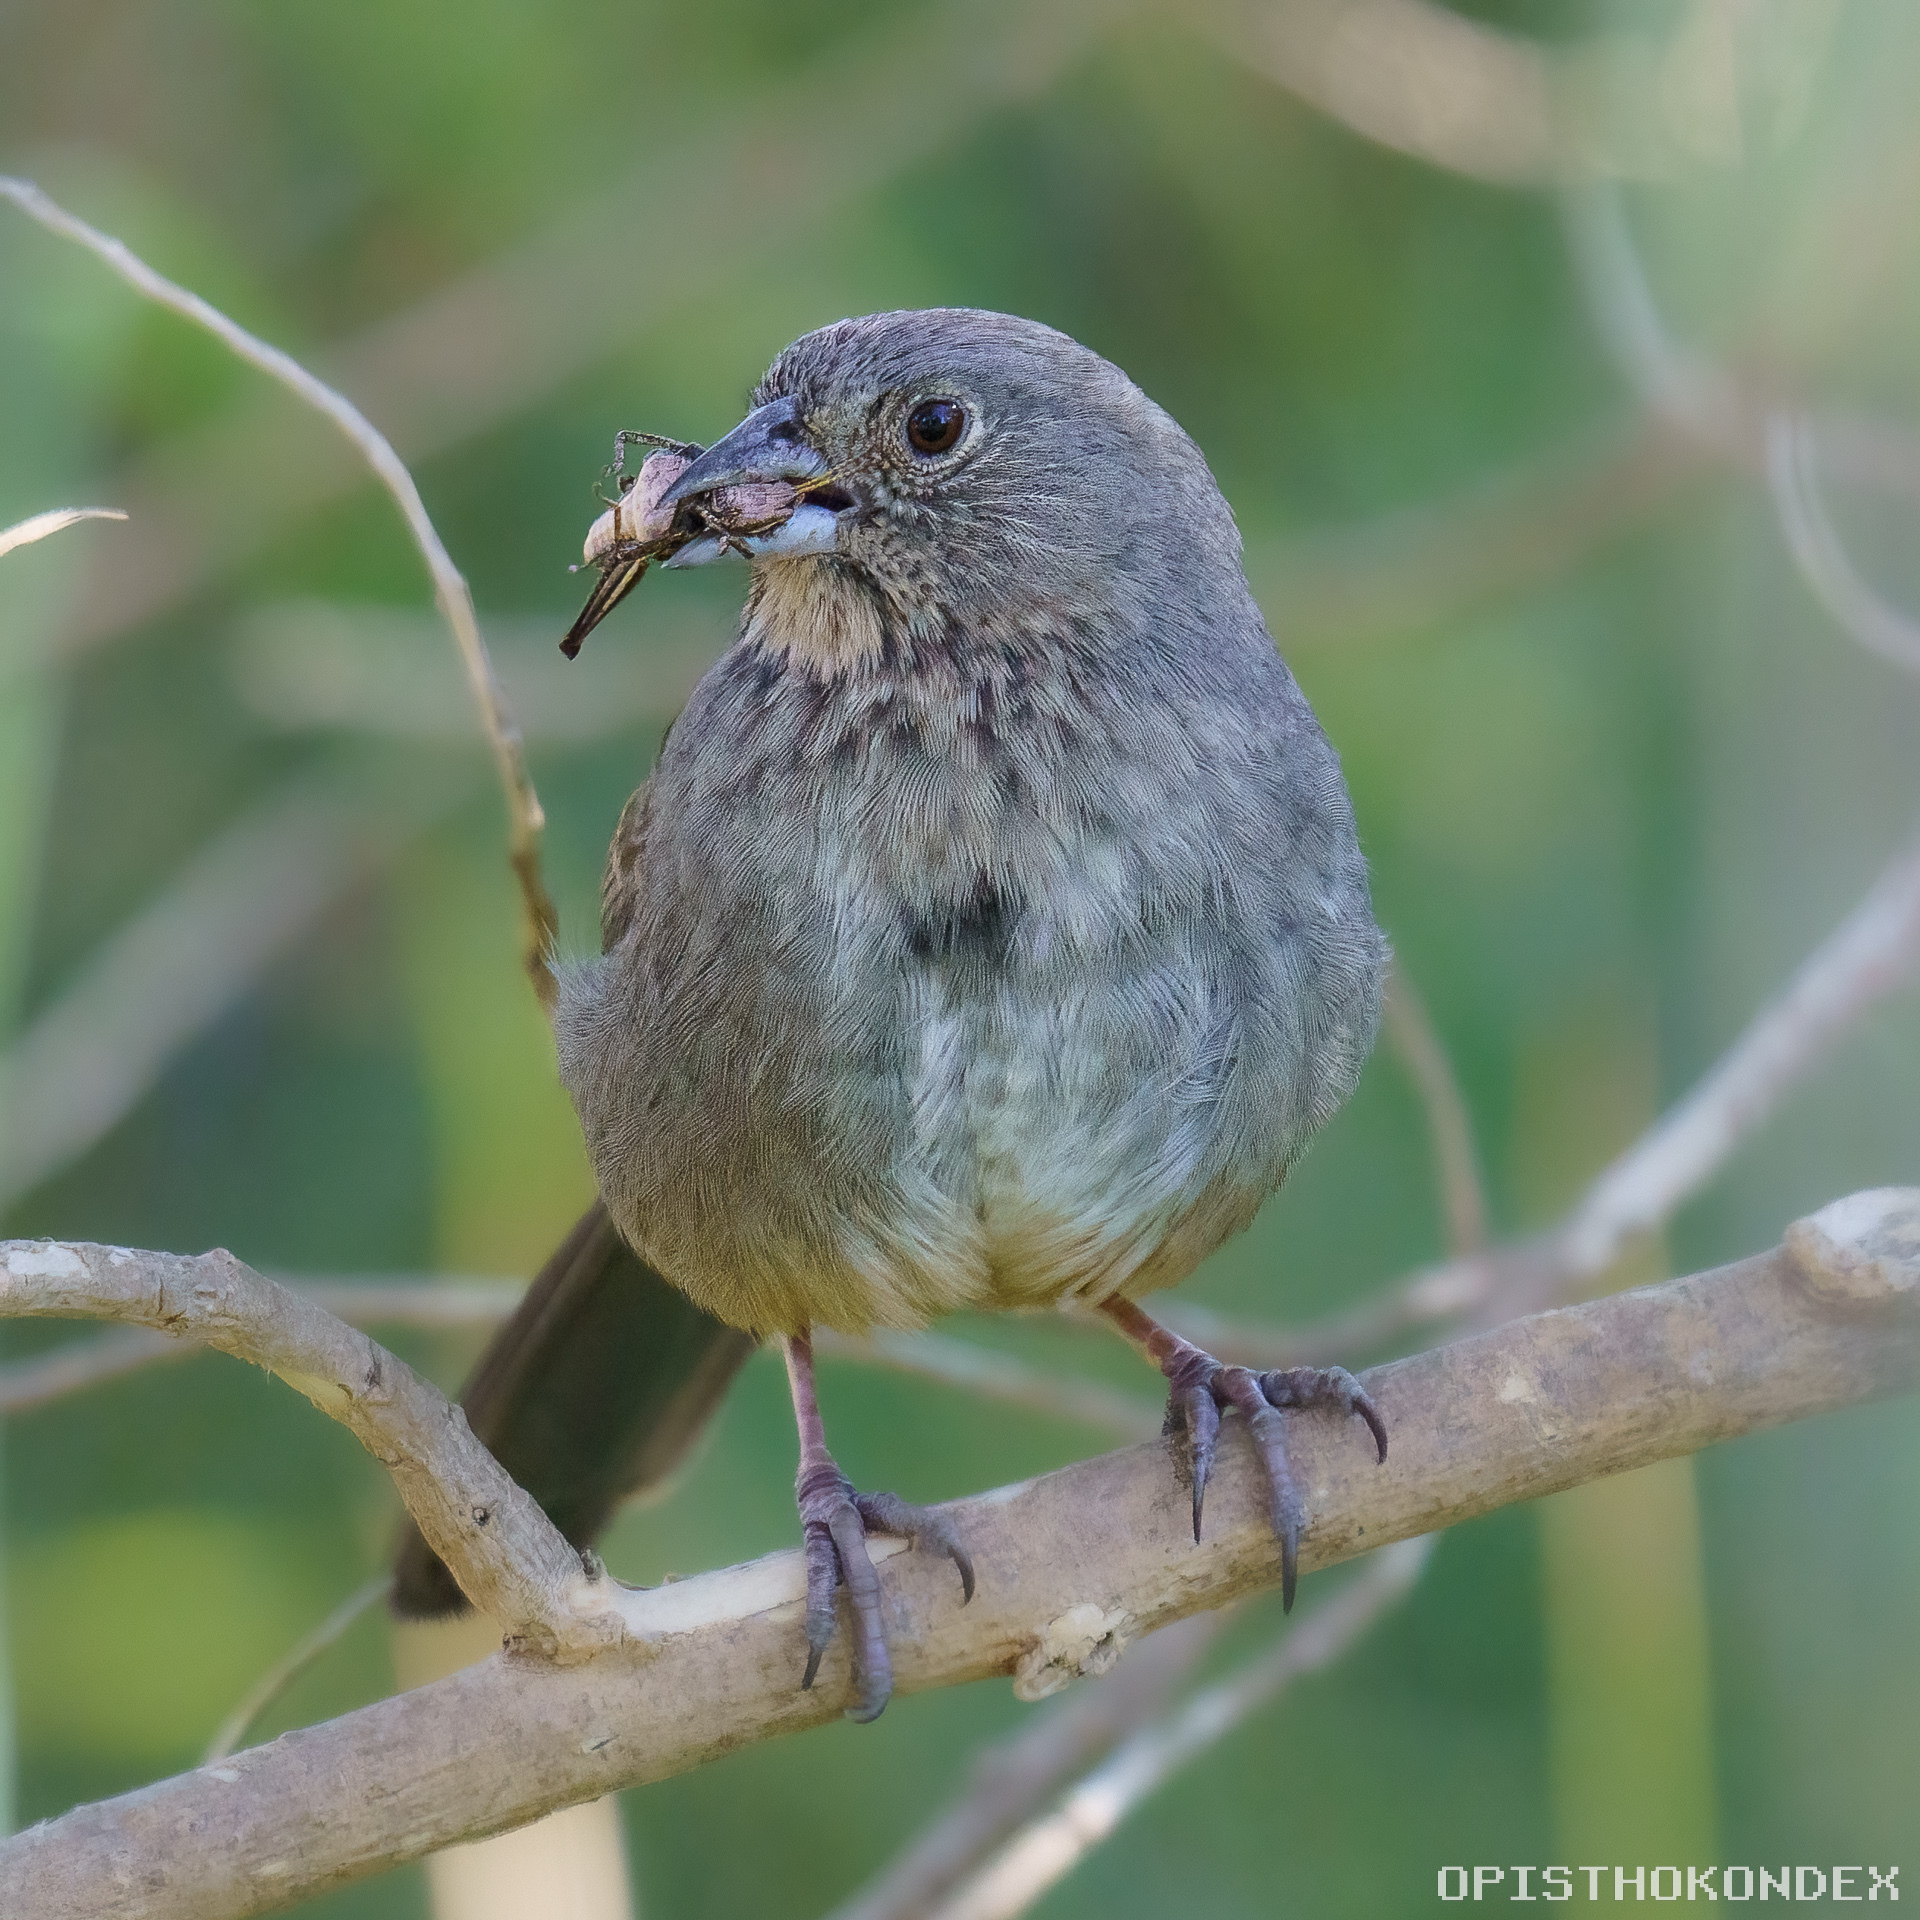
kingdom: Animalia
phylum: Chordata
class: Aves
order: Passeriformes
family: Passerellidae
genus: Melozone
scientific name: Melozone fusca
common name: Canyon towhee
